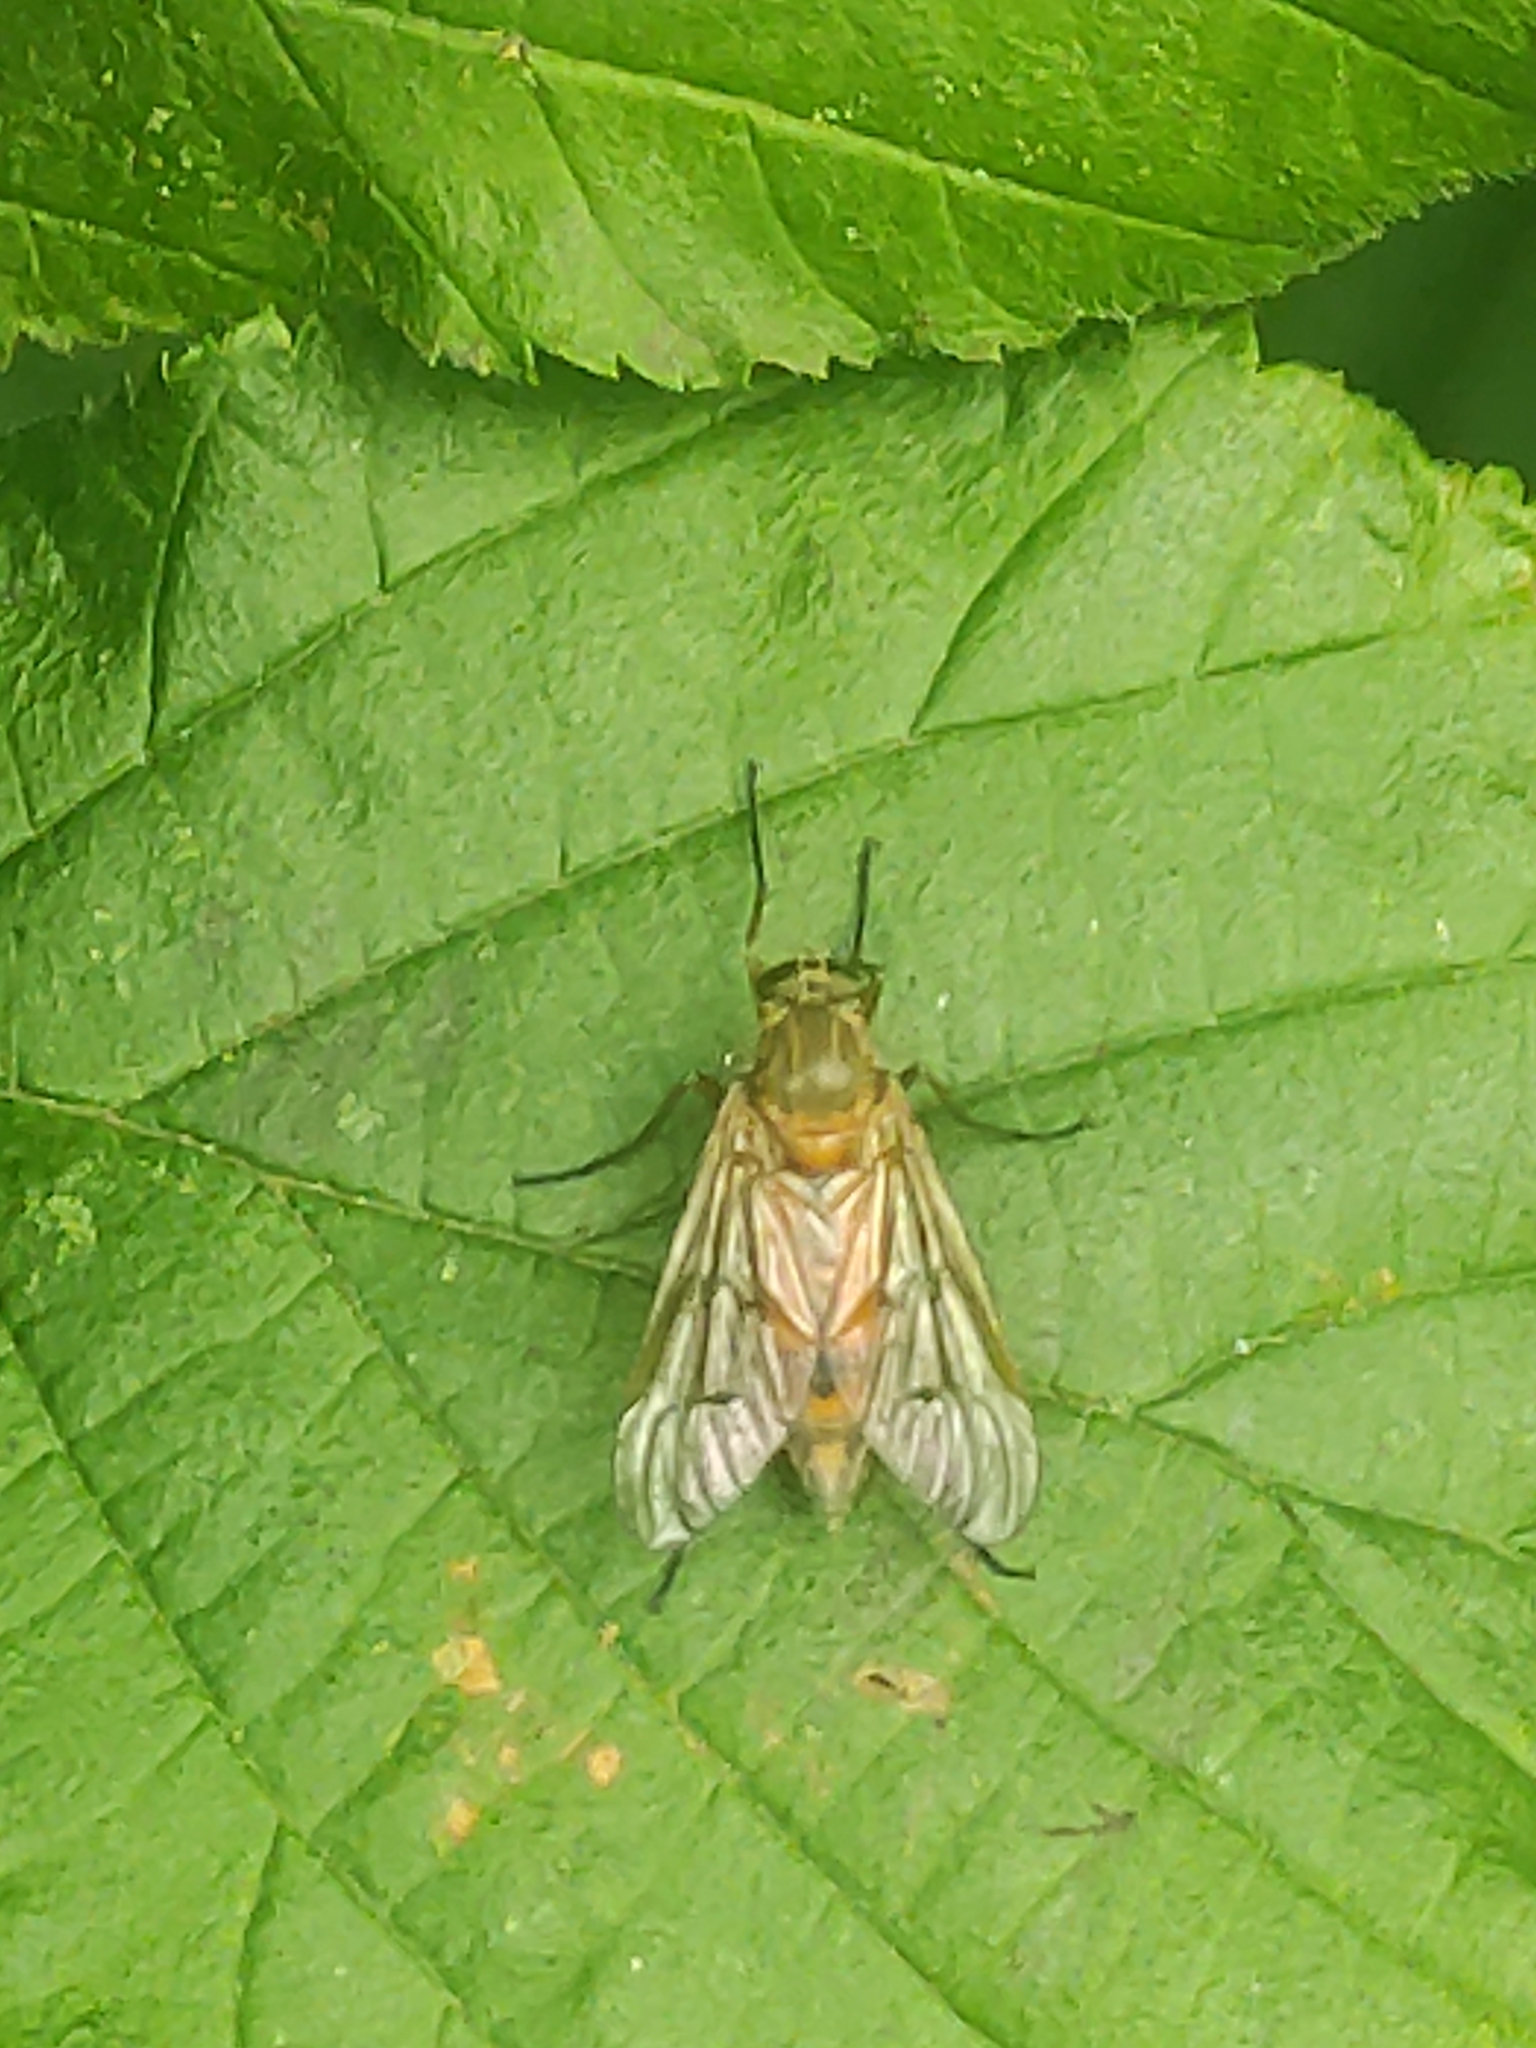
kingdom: Animalia
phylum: Arthropoda
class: Insecta
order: Diptera
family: Rhagionidae
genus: Rhagio
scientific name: Rhagio tringaria
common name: Marsh snipefly
